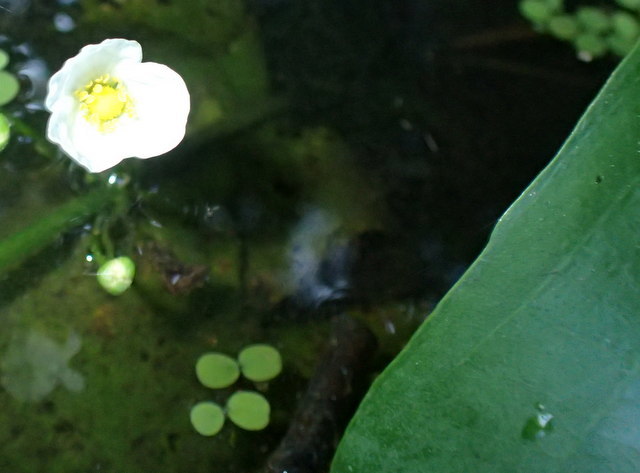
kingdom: Plantae
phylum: Tracheophyta
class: Liliopsida
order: Alismatales
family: Alismataceae
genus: Aquarius
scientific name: Aquarius cordifolius
